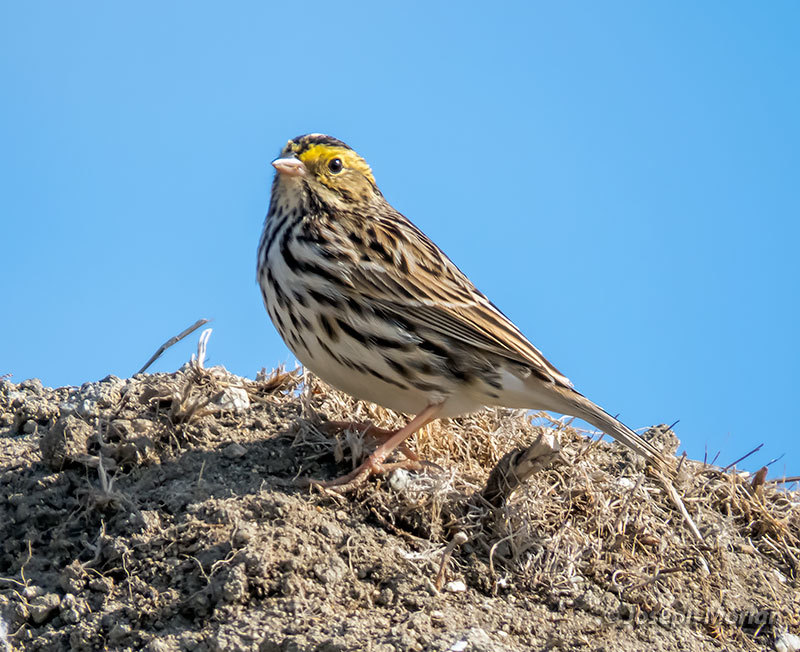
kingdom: Animalia
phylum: Chordata
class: Aves
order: Passeriformes
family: Passerellidae
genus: Passerculus
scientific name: Passerculus sandwichensis
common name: Savannah sparrow
